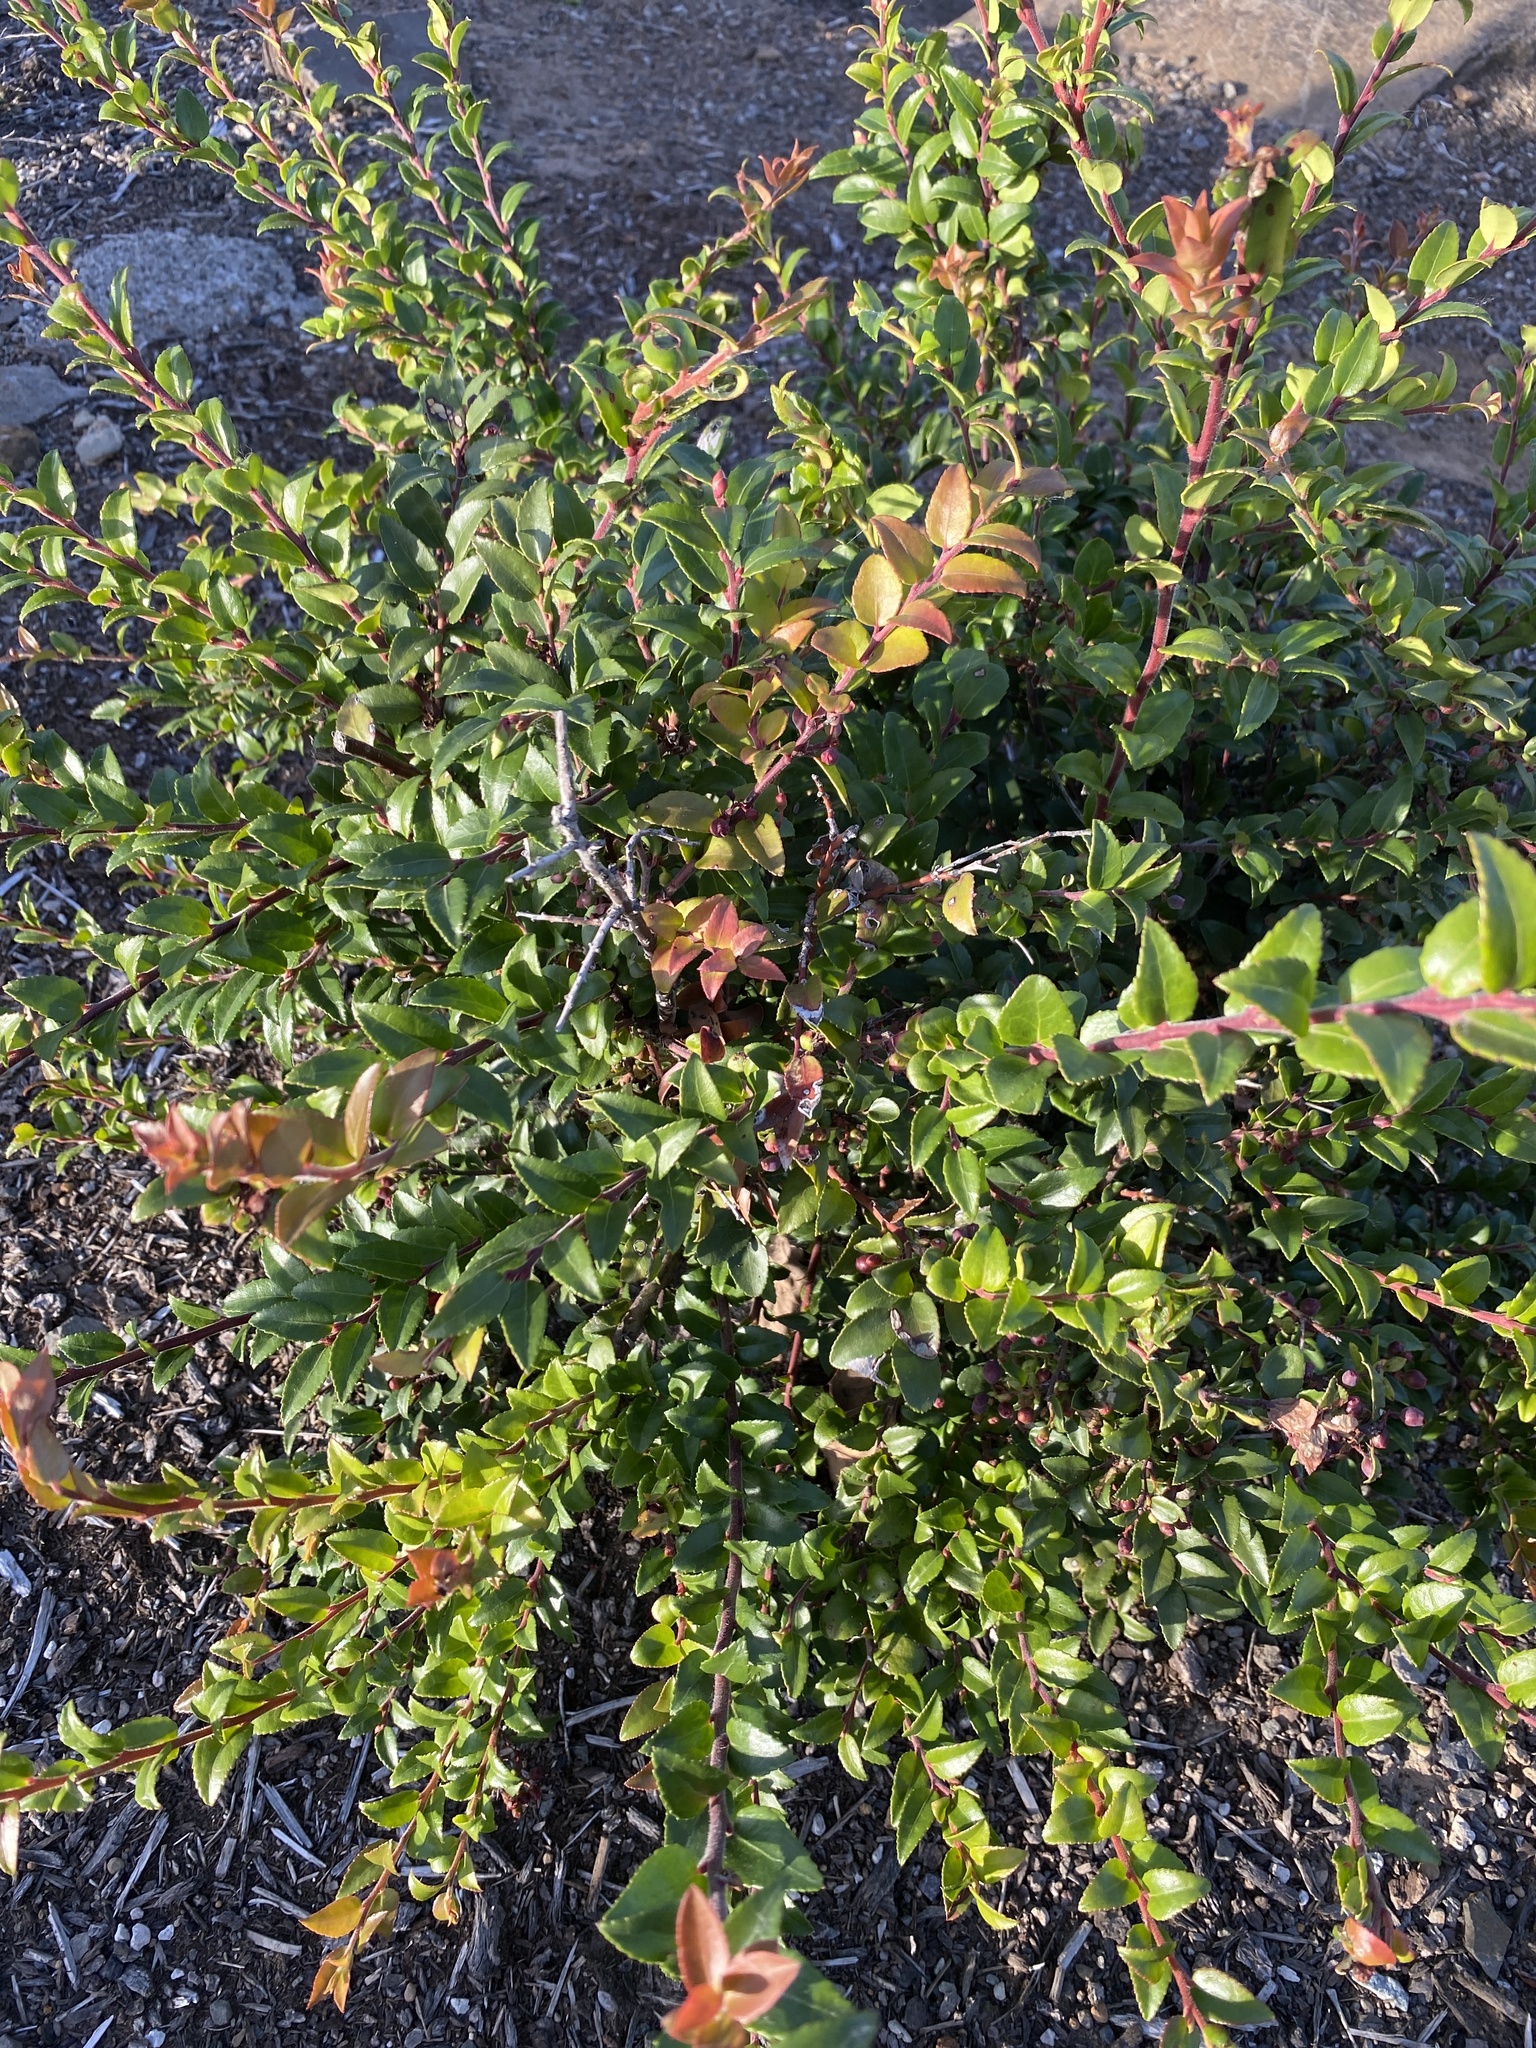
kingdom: Plantae
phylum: Tracheophyta
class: Magnoliopsida
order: Ericales
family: Ericaceae
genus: Vaccinium
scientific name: Vaccinium ovatum
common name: California-huckleberry
